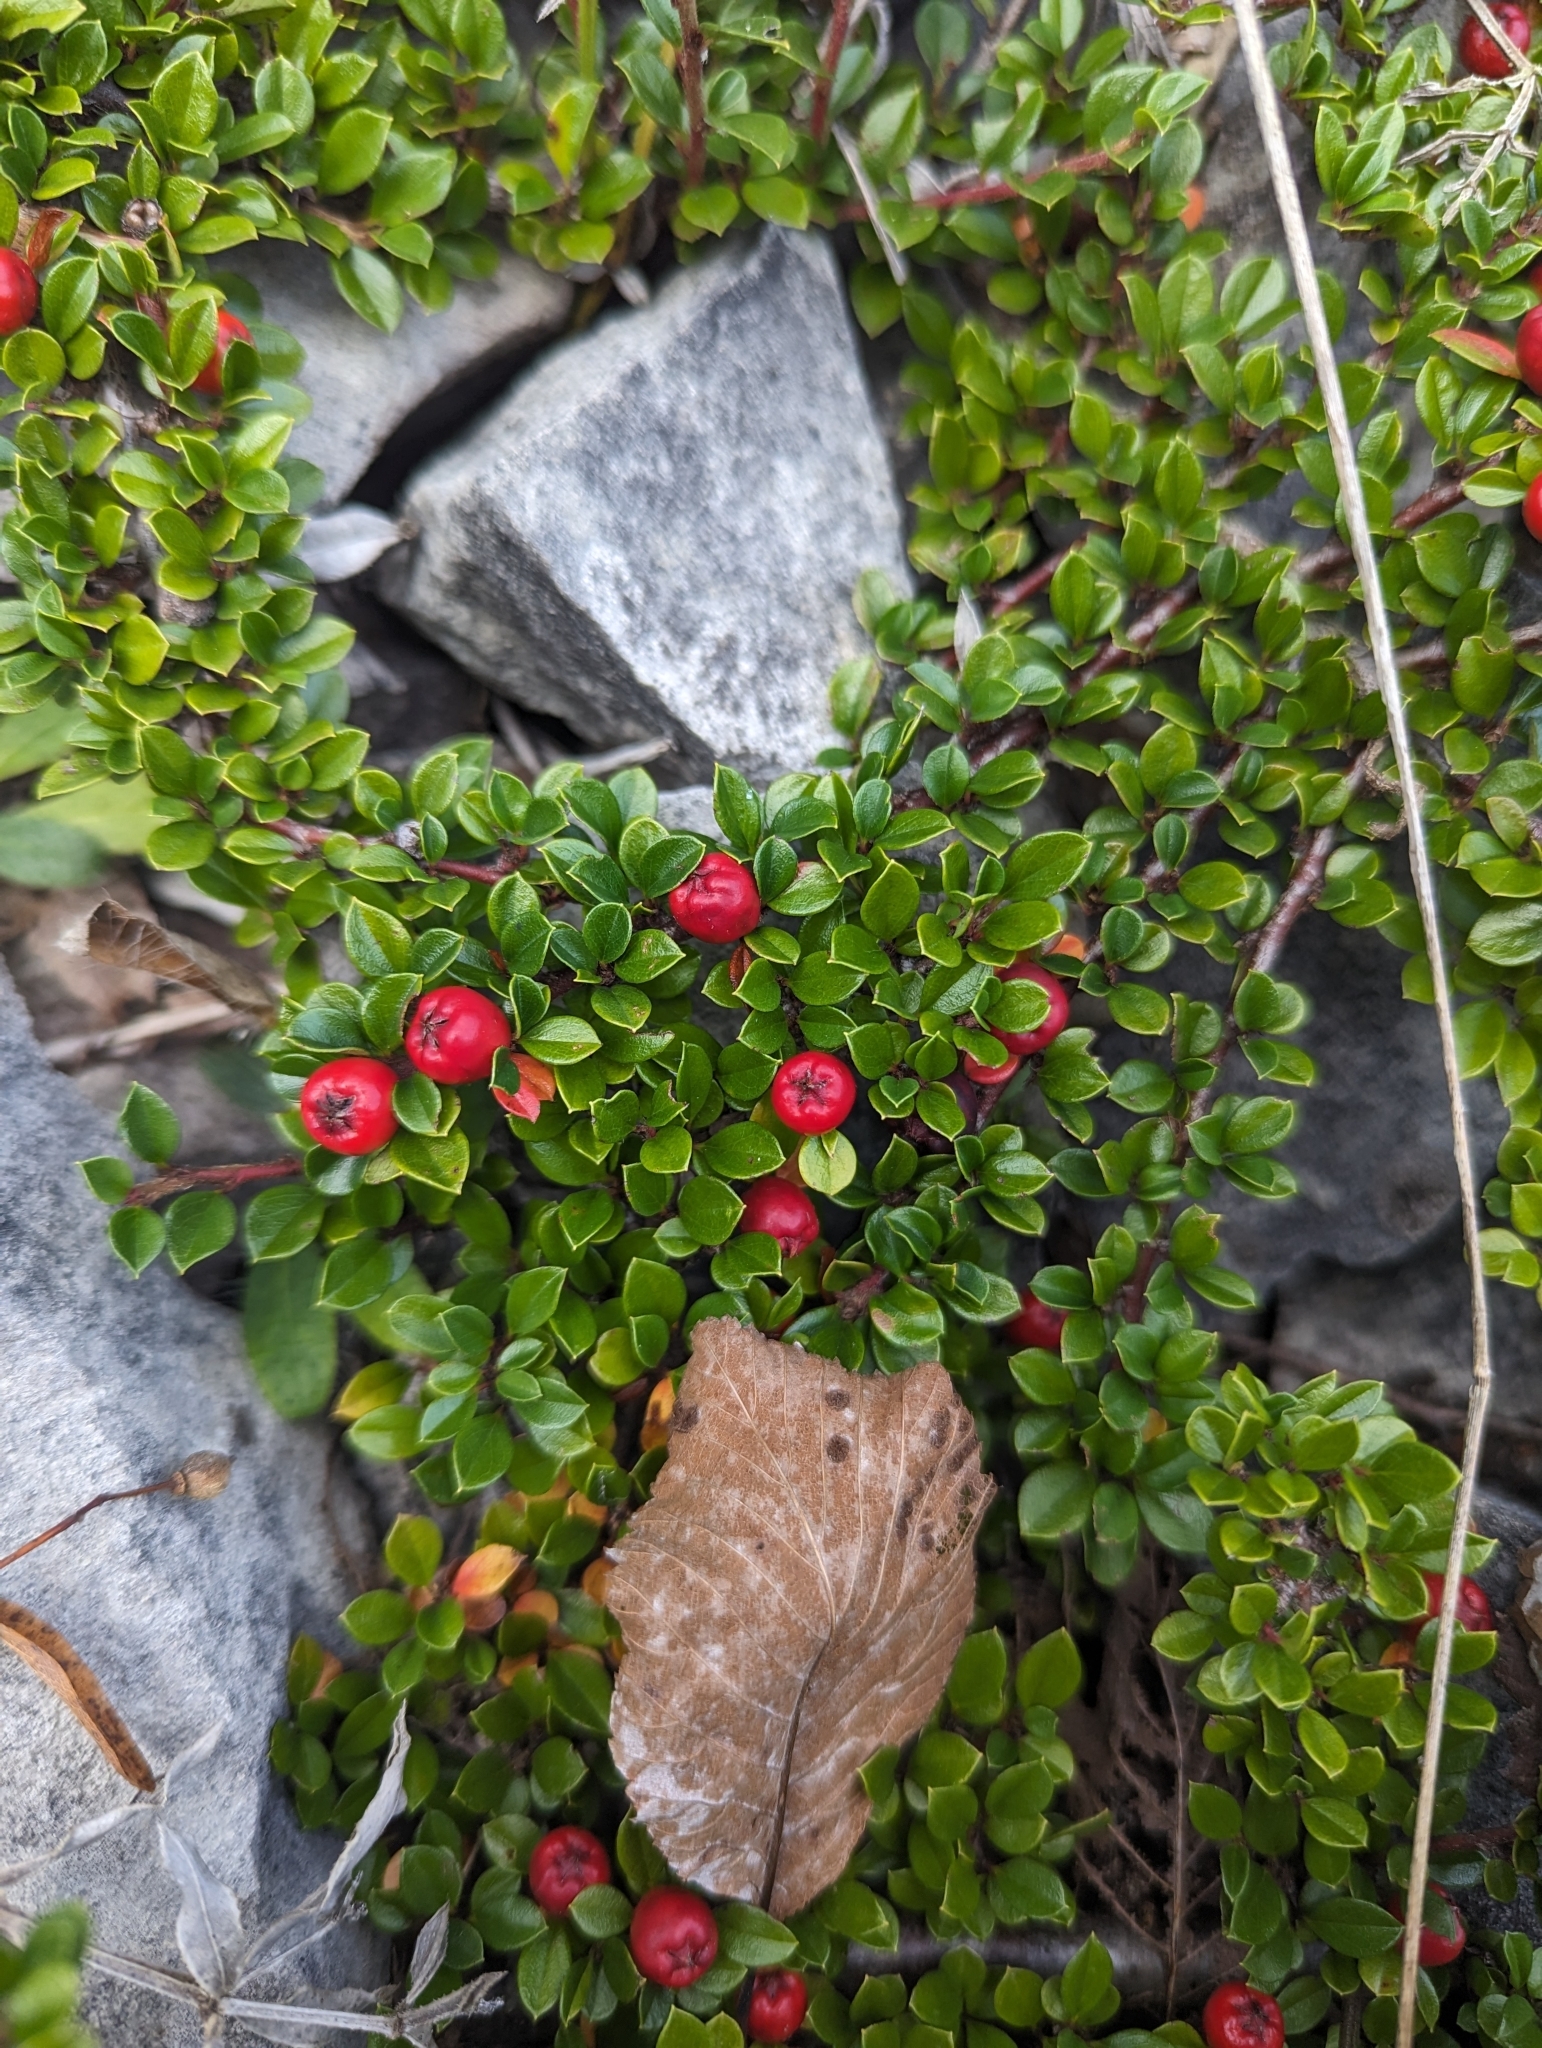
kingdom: Plantae
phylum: Tracheophyta
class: Magnoliopsida
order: Rosales
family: Rosaceae
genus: Cotoneaster
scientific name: Cotoneaster horizontalis
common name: Wall cotoneaster
